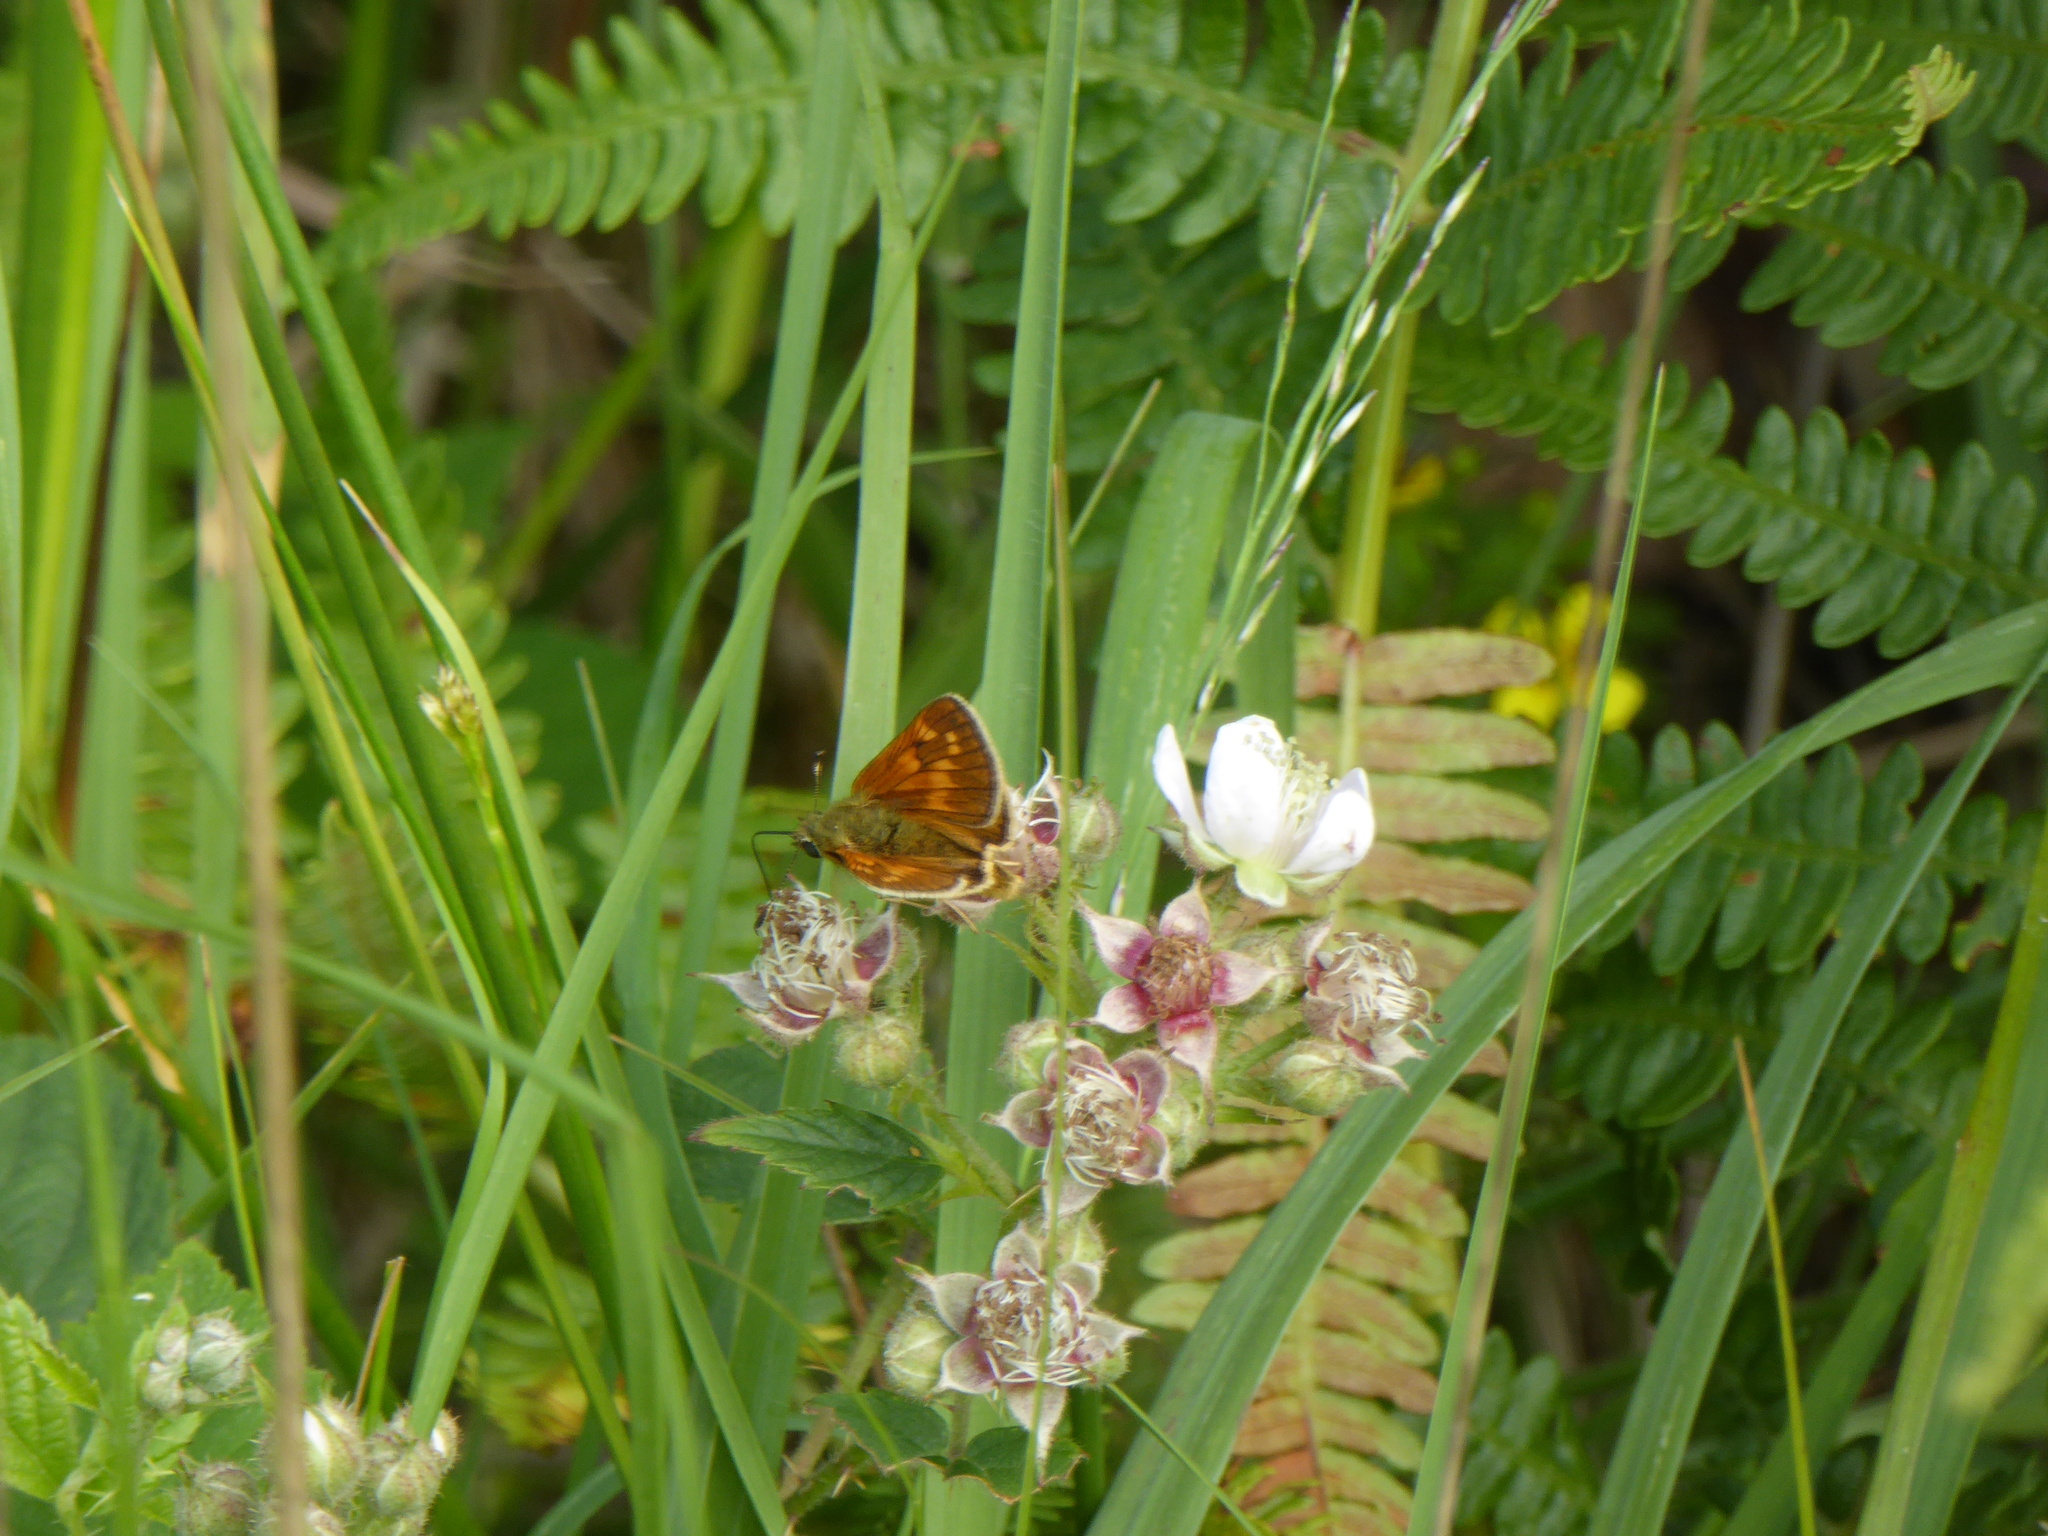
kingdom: Animalia
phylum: Arthropoda
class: Insecta
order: Lepidoptera
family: Hesperiidae
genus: Ochlodes
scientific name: Ochlodes venata
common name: Large skipper
